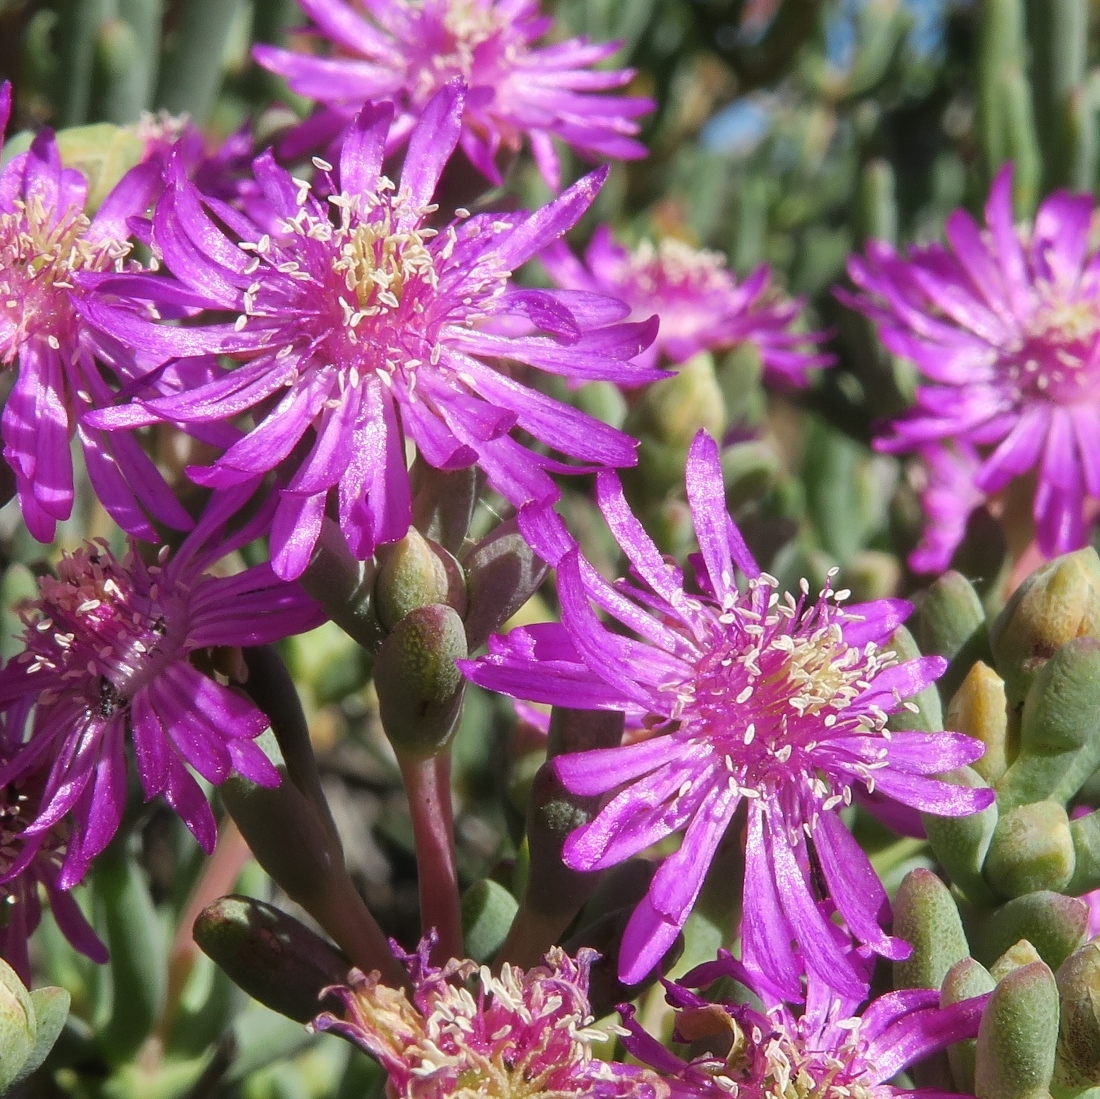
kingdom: Plantae
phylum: Tracheophyta
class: Magnoliopsida
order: Caryophyllales
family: Aizoaceae
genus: Leipoldtia
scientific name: Leipoldtia schultzei
